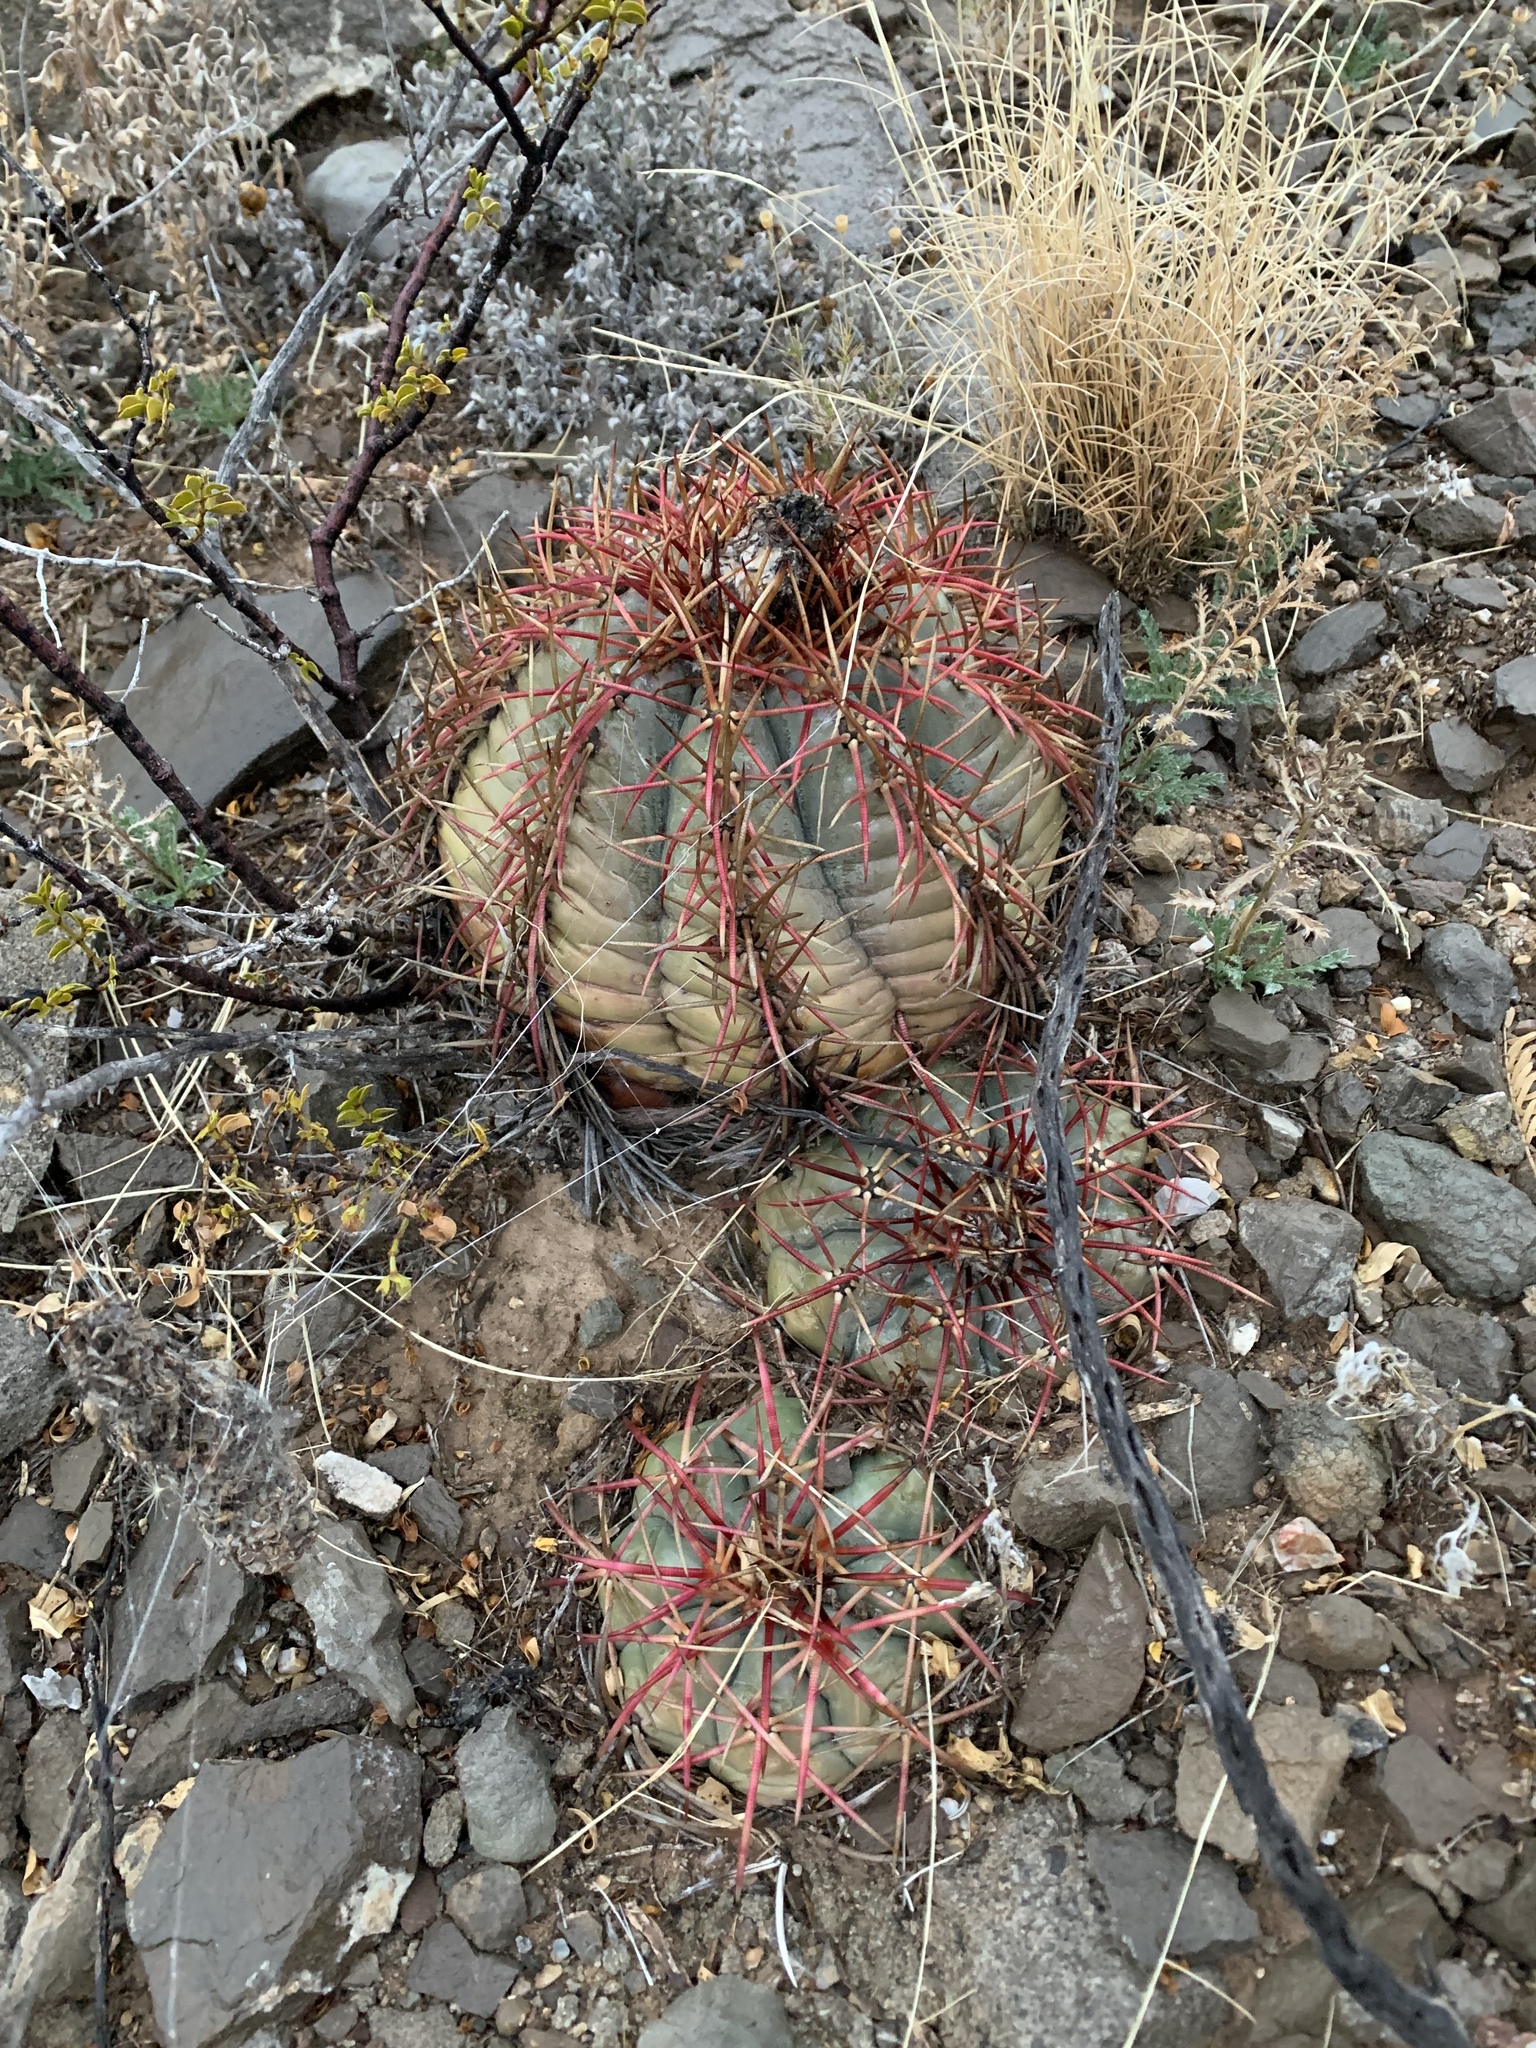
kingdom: Plantae
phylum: Tracheophyta
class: Magnoliopsida
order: Caryophyllales
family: Cactaceae
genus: Echinocactus
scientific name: Echinocactus horizonthalonius
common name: Devilshead
